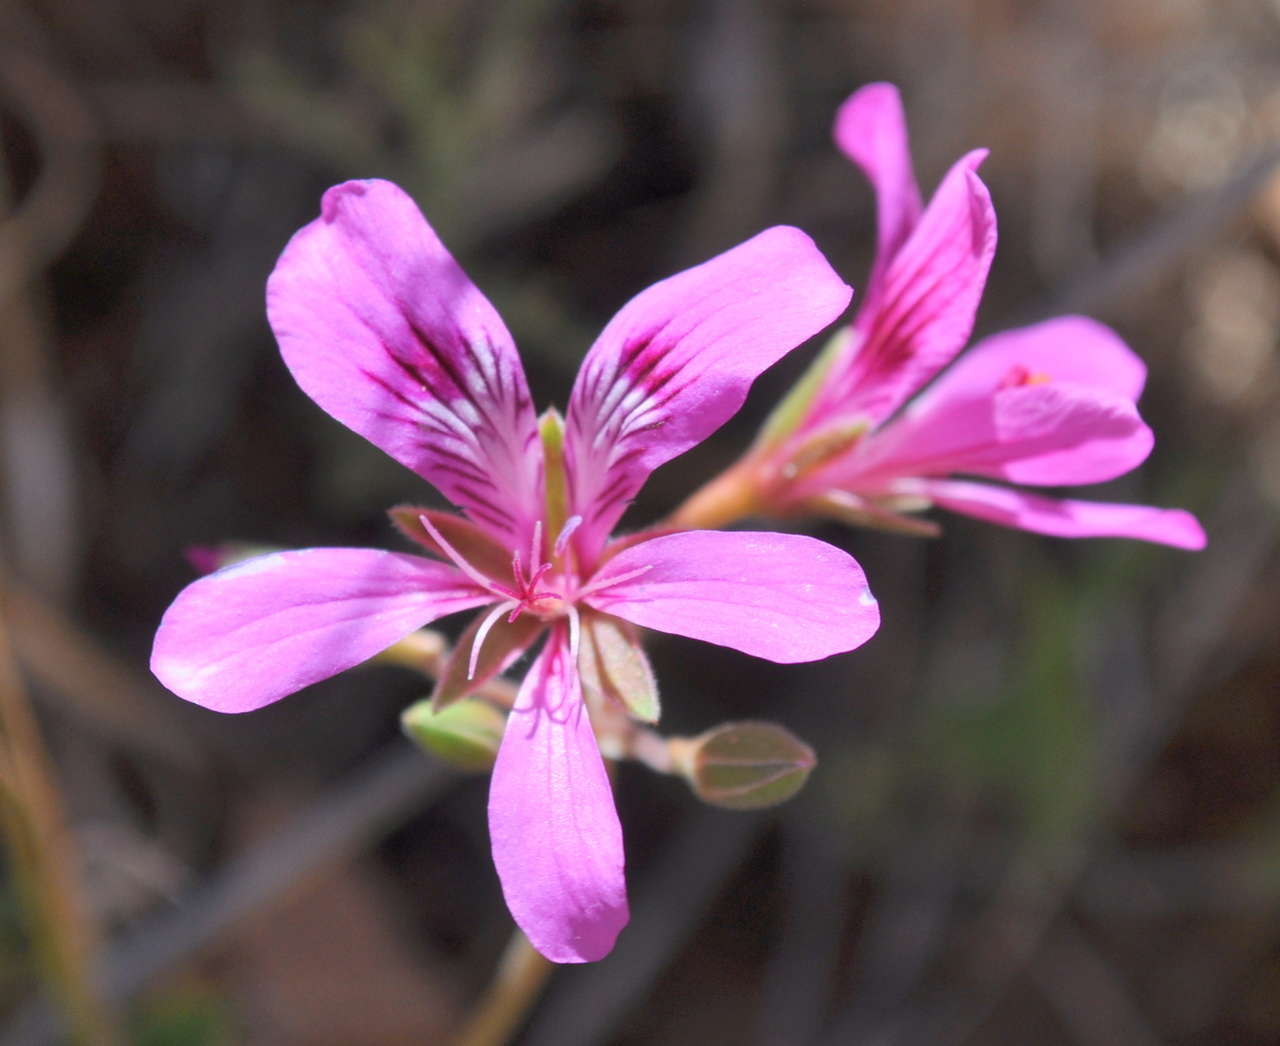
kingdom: Plantae
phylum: Tracheophyta
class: Magnoliopsida
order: Geraniales
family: Geraniaceae
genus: Pelargonium
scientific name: Pelargonium rodneyanum
